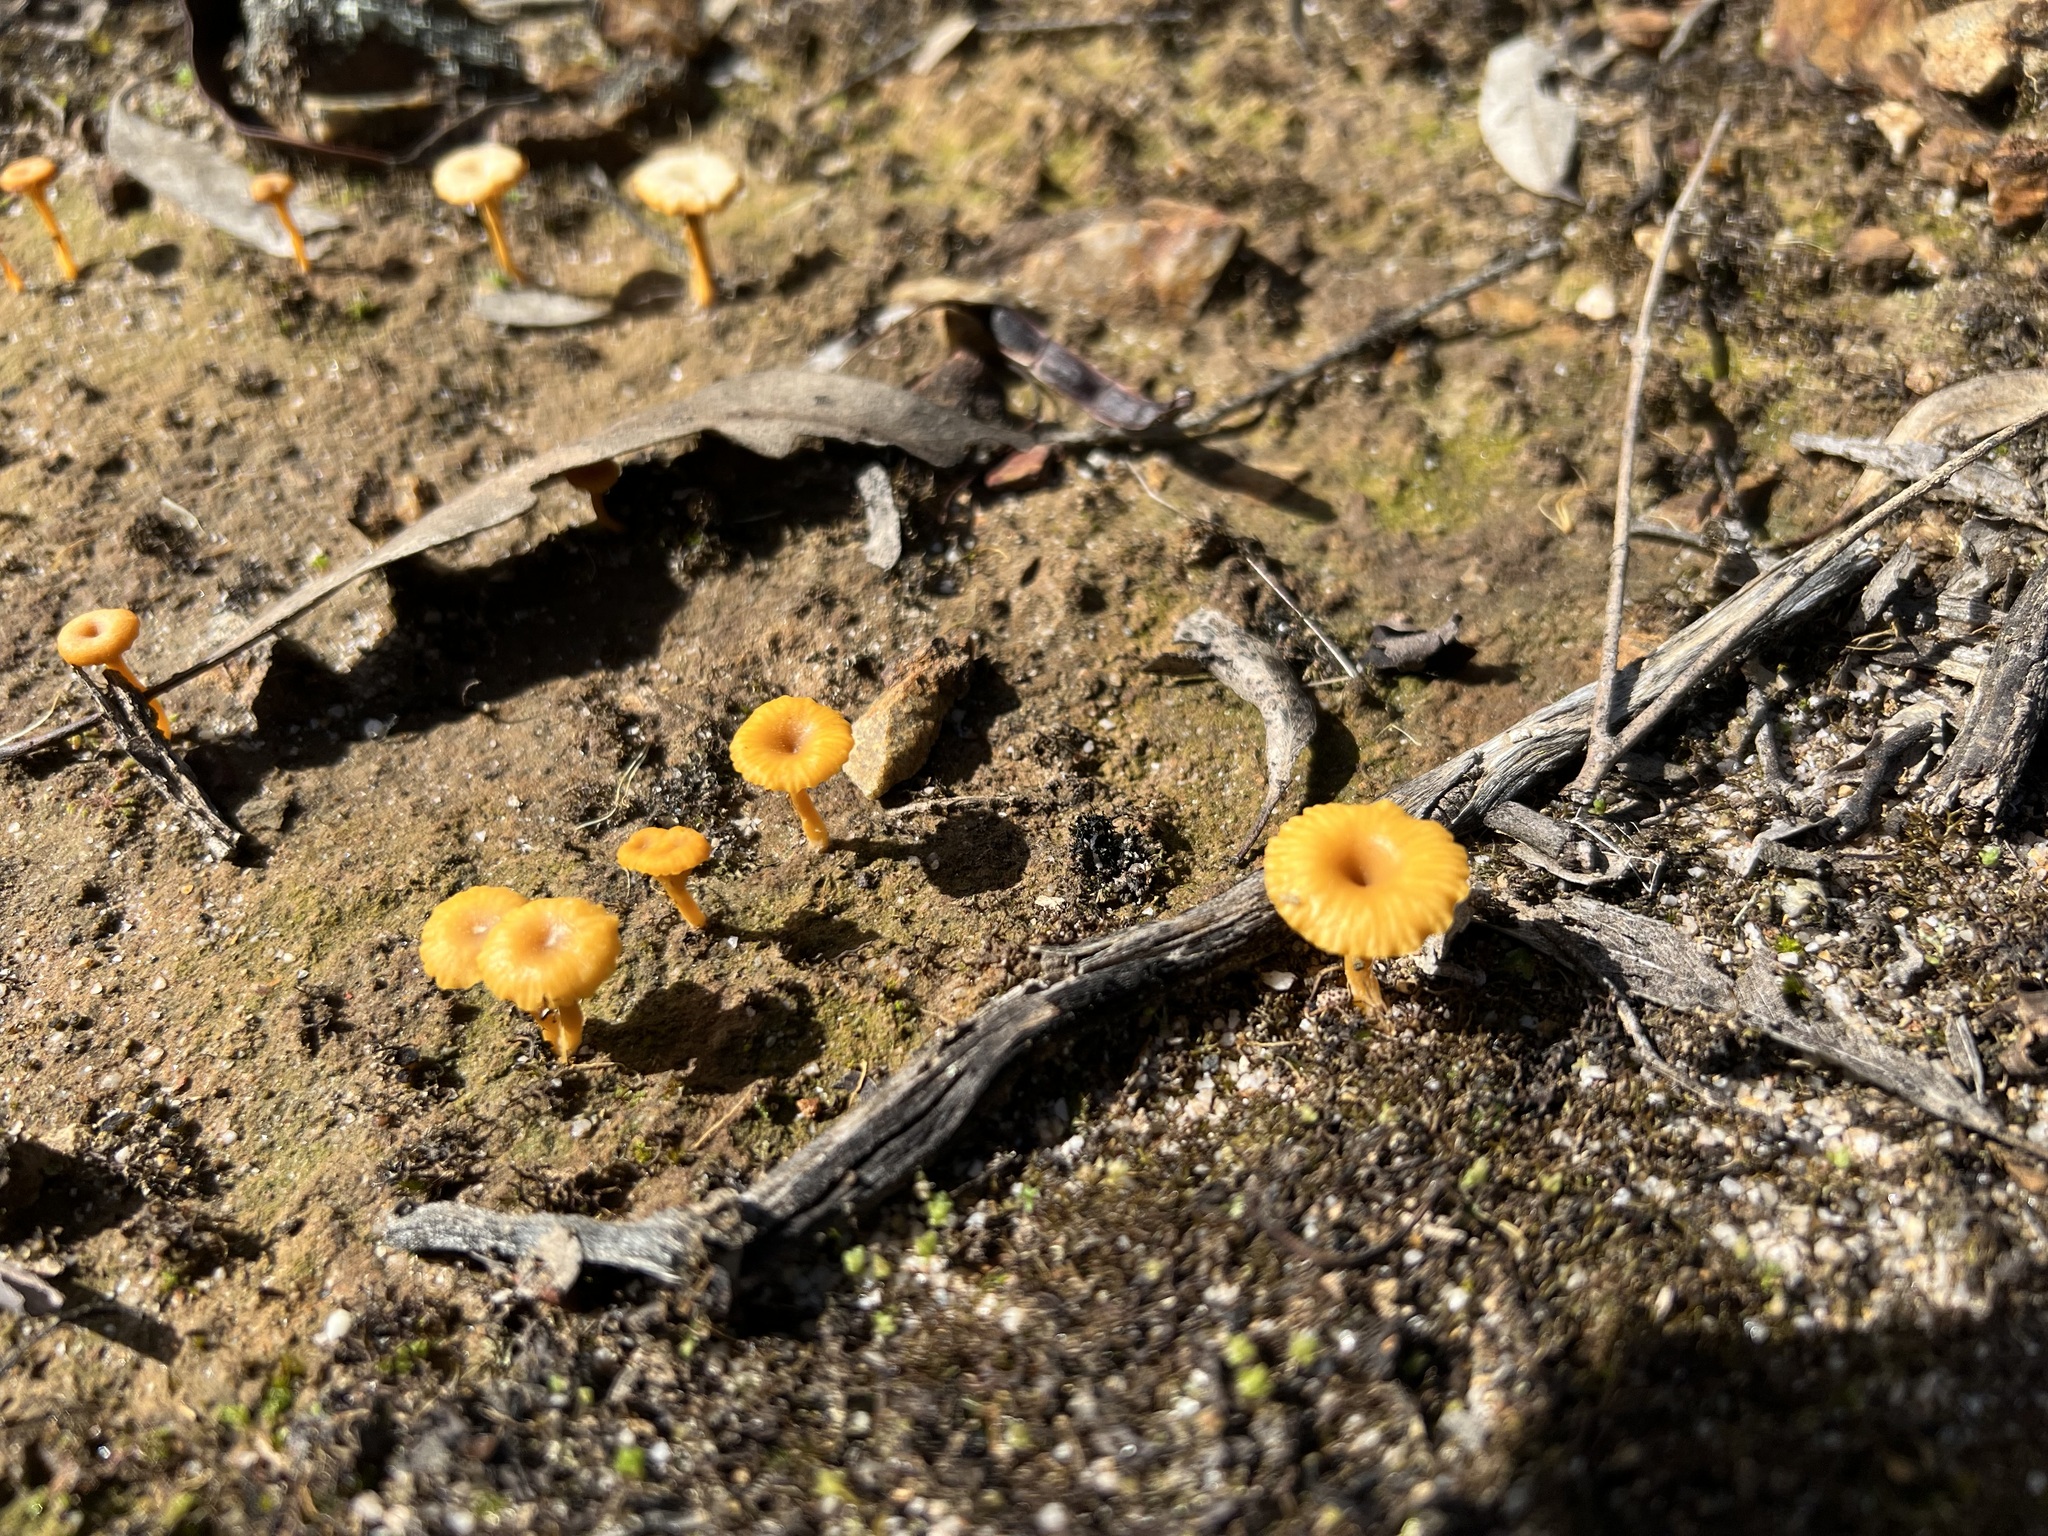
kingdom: Fungi
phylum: Basidiomycota
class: Agaricomycetes
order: Agaricales
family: Hygrophoraceae
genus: Lichenomphalia
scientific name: Lichenomphalia chromacea
